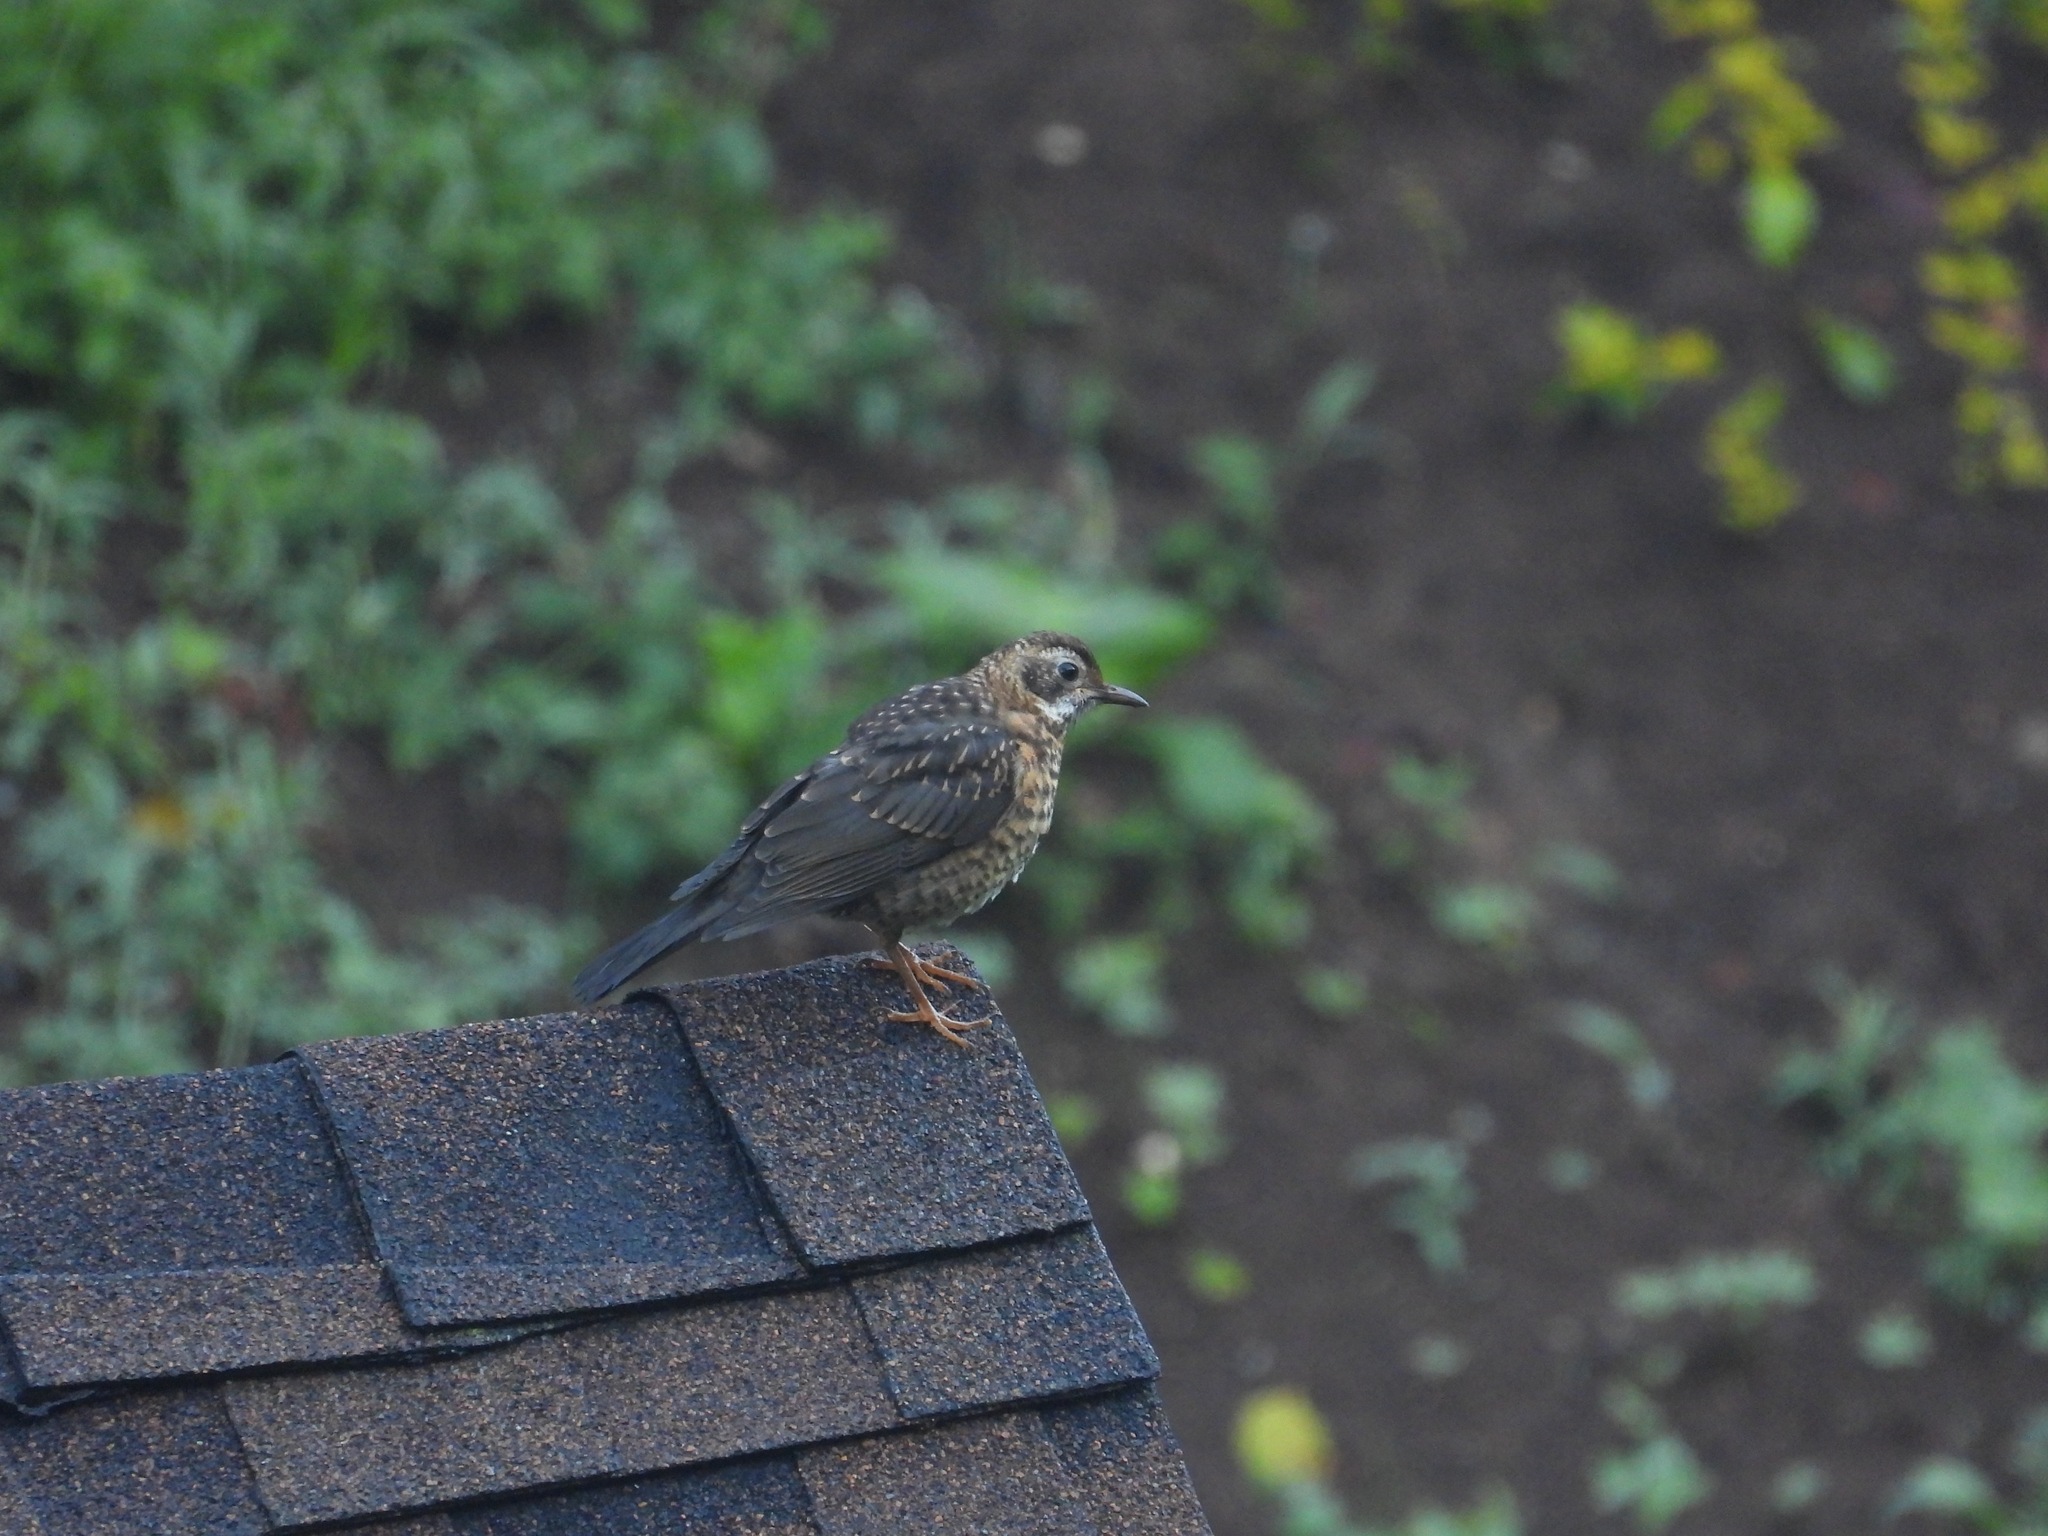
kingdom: Animalia
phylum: Chordata
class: Aves
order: Passeriformes
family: Turdidae
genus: Turdus
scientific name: Turdus rufitorques
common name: Rufous-collared thrush
